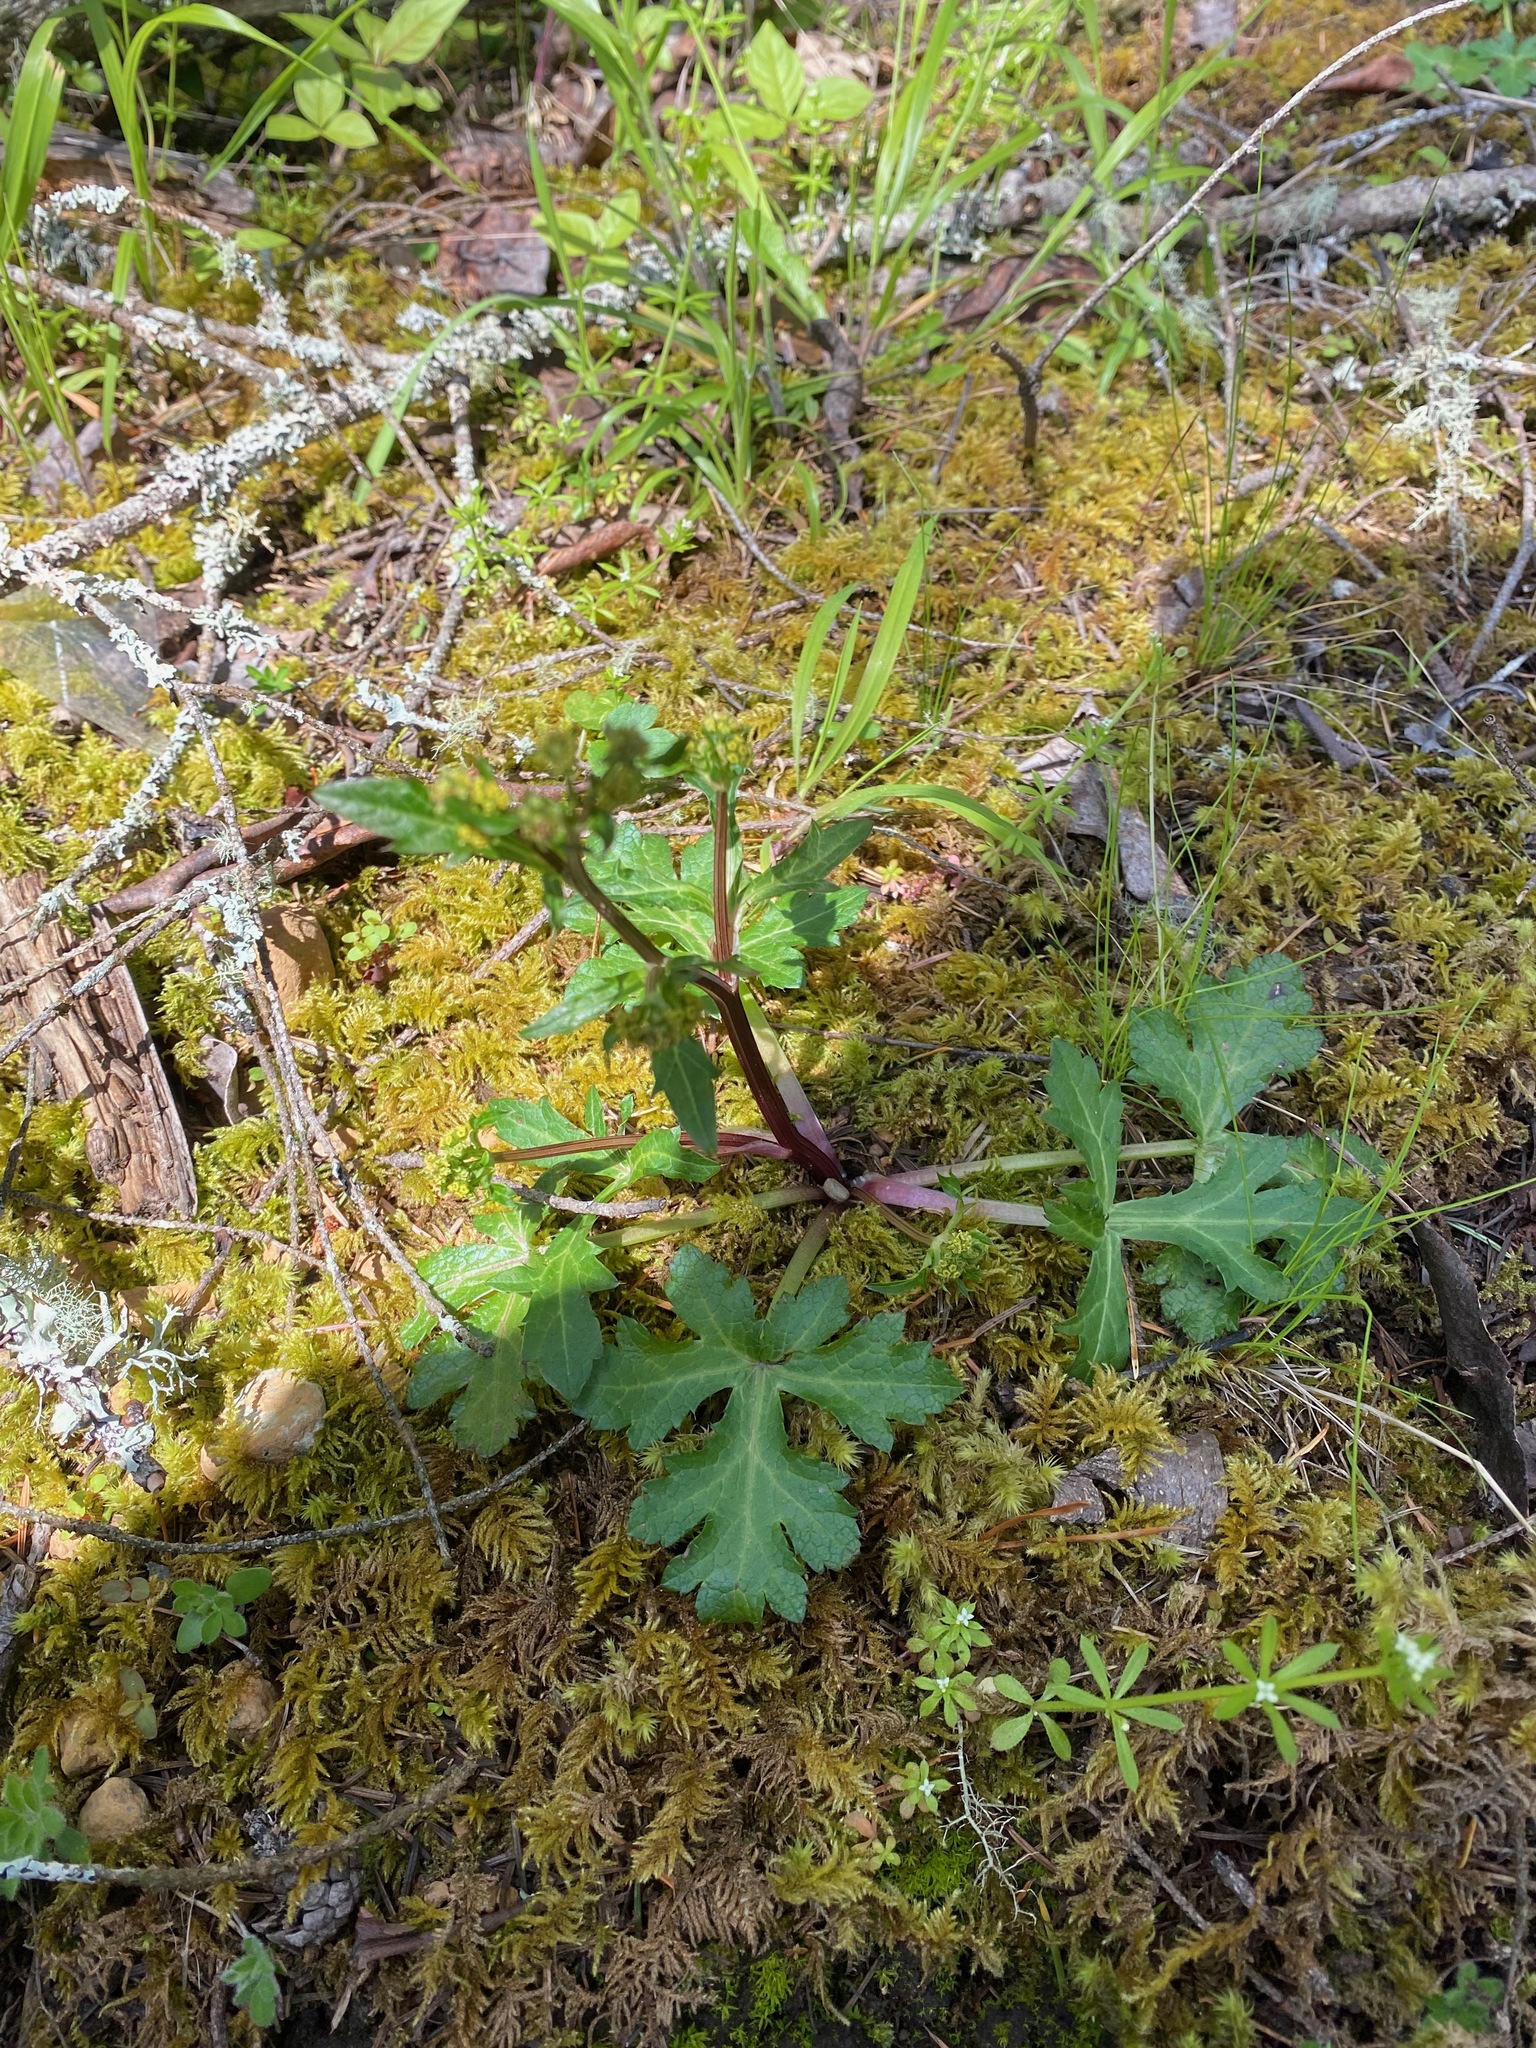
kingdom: Plantae
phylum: Tracheophyta
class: Magnoliopsida
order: Apiales
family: Apiaceae
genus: Sanicula
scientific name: Sanicula crassicaulis
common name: Western snakeroot
